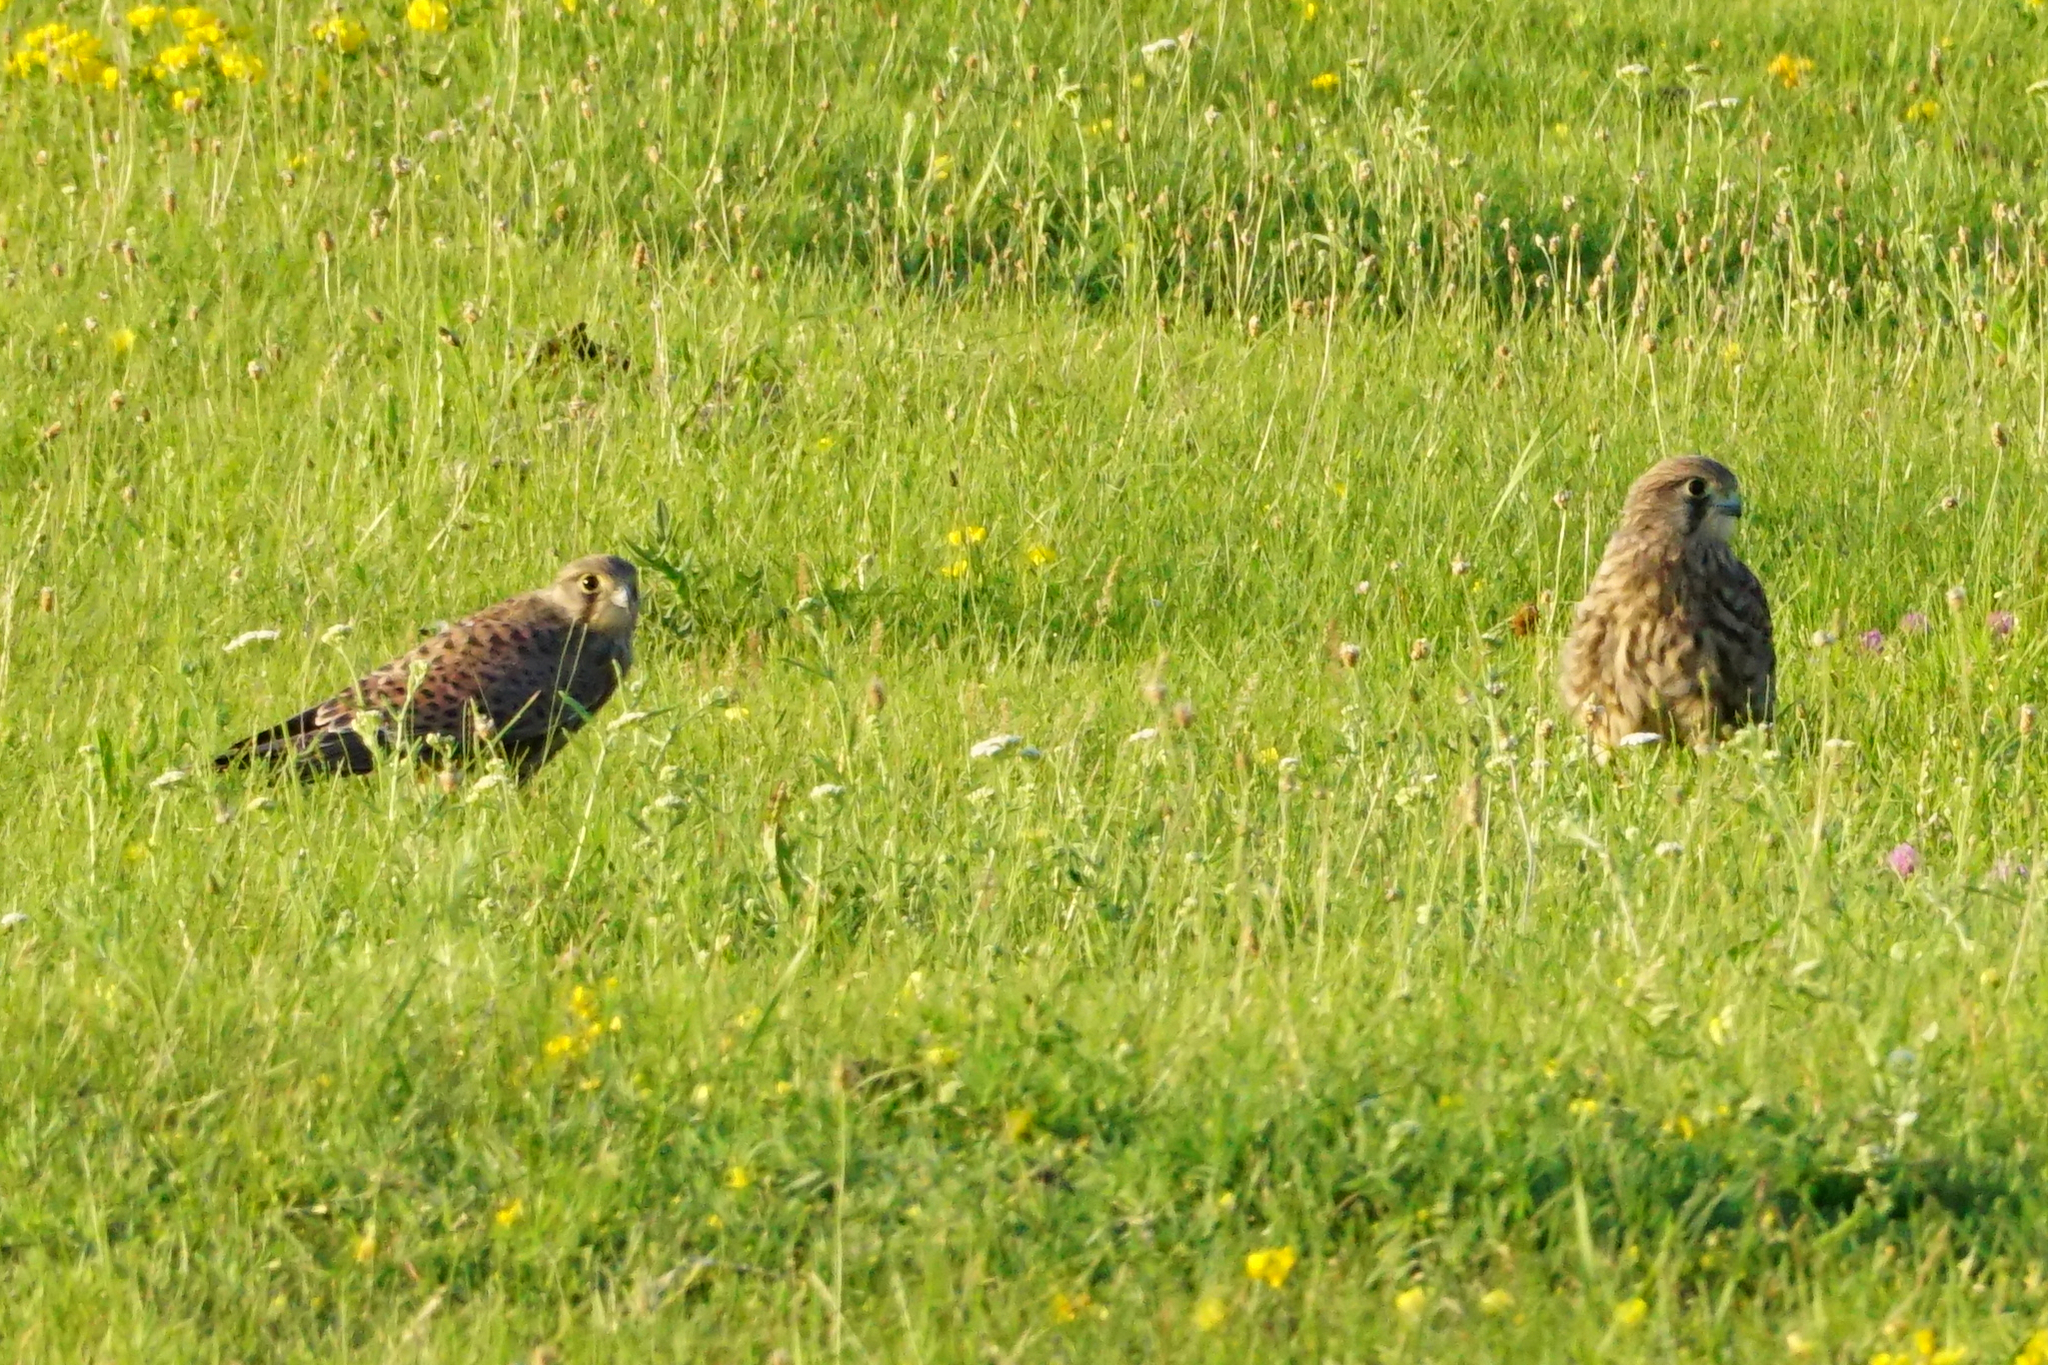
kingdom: Animalia
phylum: Chordata
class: Aves
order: Falconiformes
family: Falconidae
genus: Falco
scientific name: Falco tinnunculus
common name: Common kestrel
